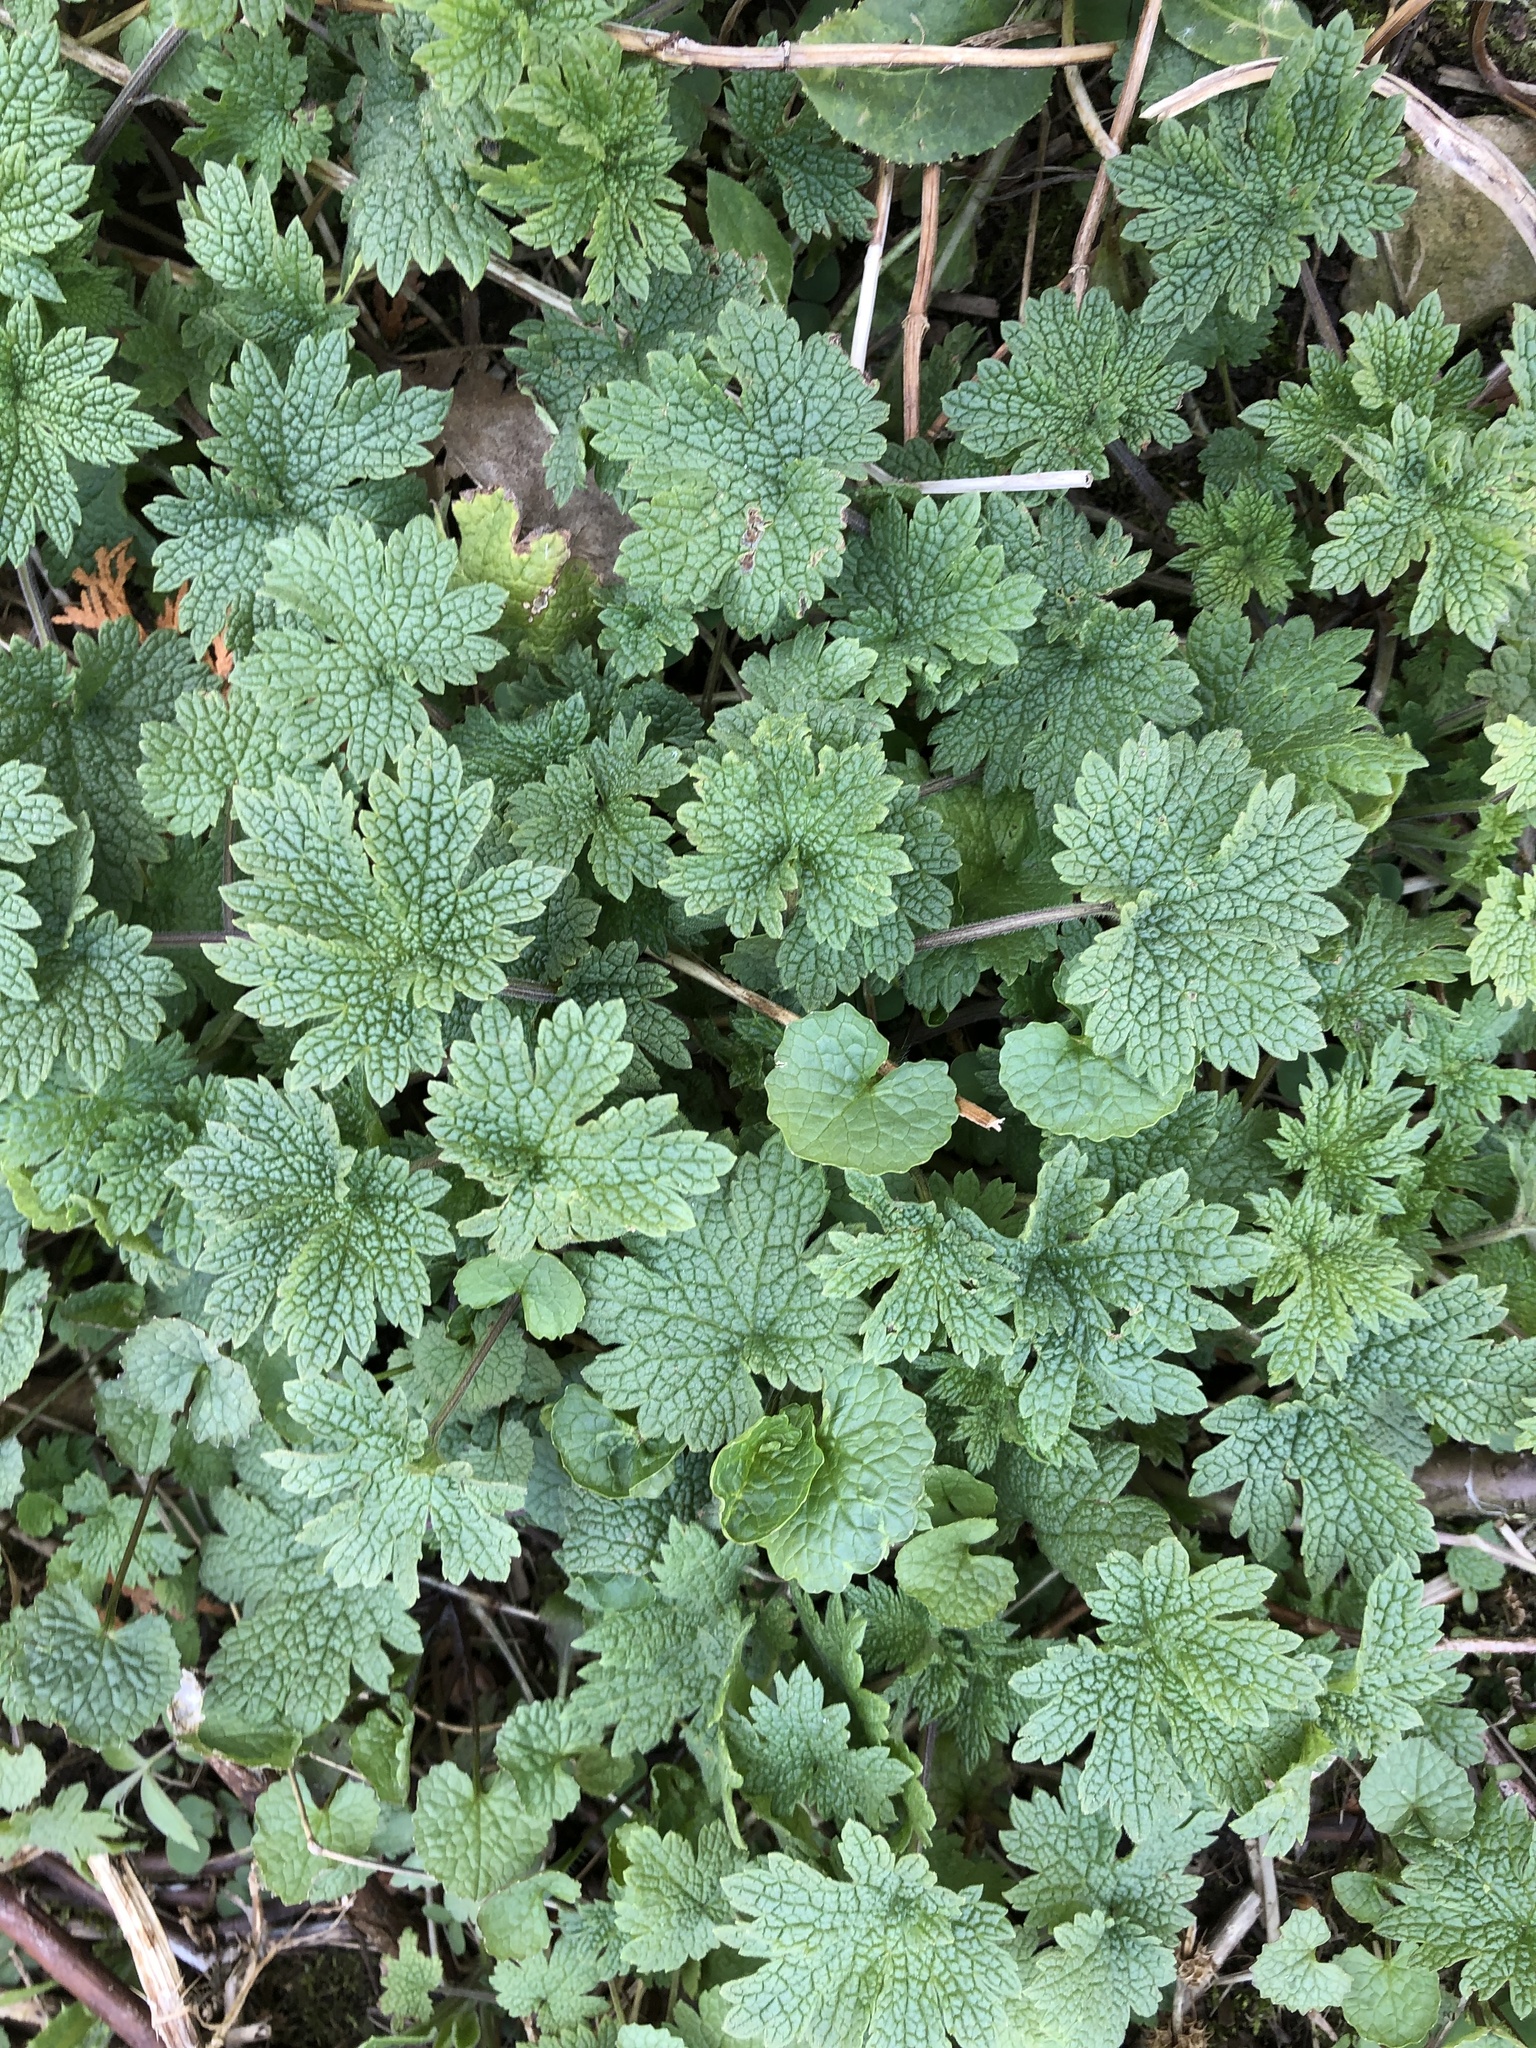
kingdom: Plantae
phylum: Tracheophyta
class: Magnoliopsida
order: Lamiales
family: Lamiaceae
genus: Leonurus
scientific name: Leonurus cardiaca
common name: Motherwort
